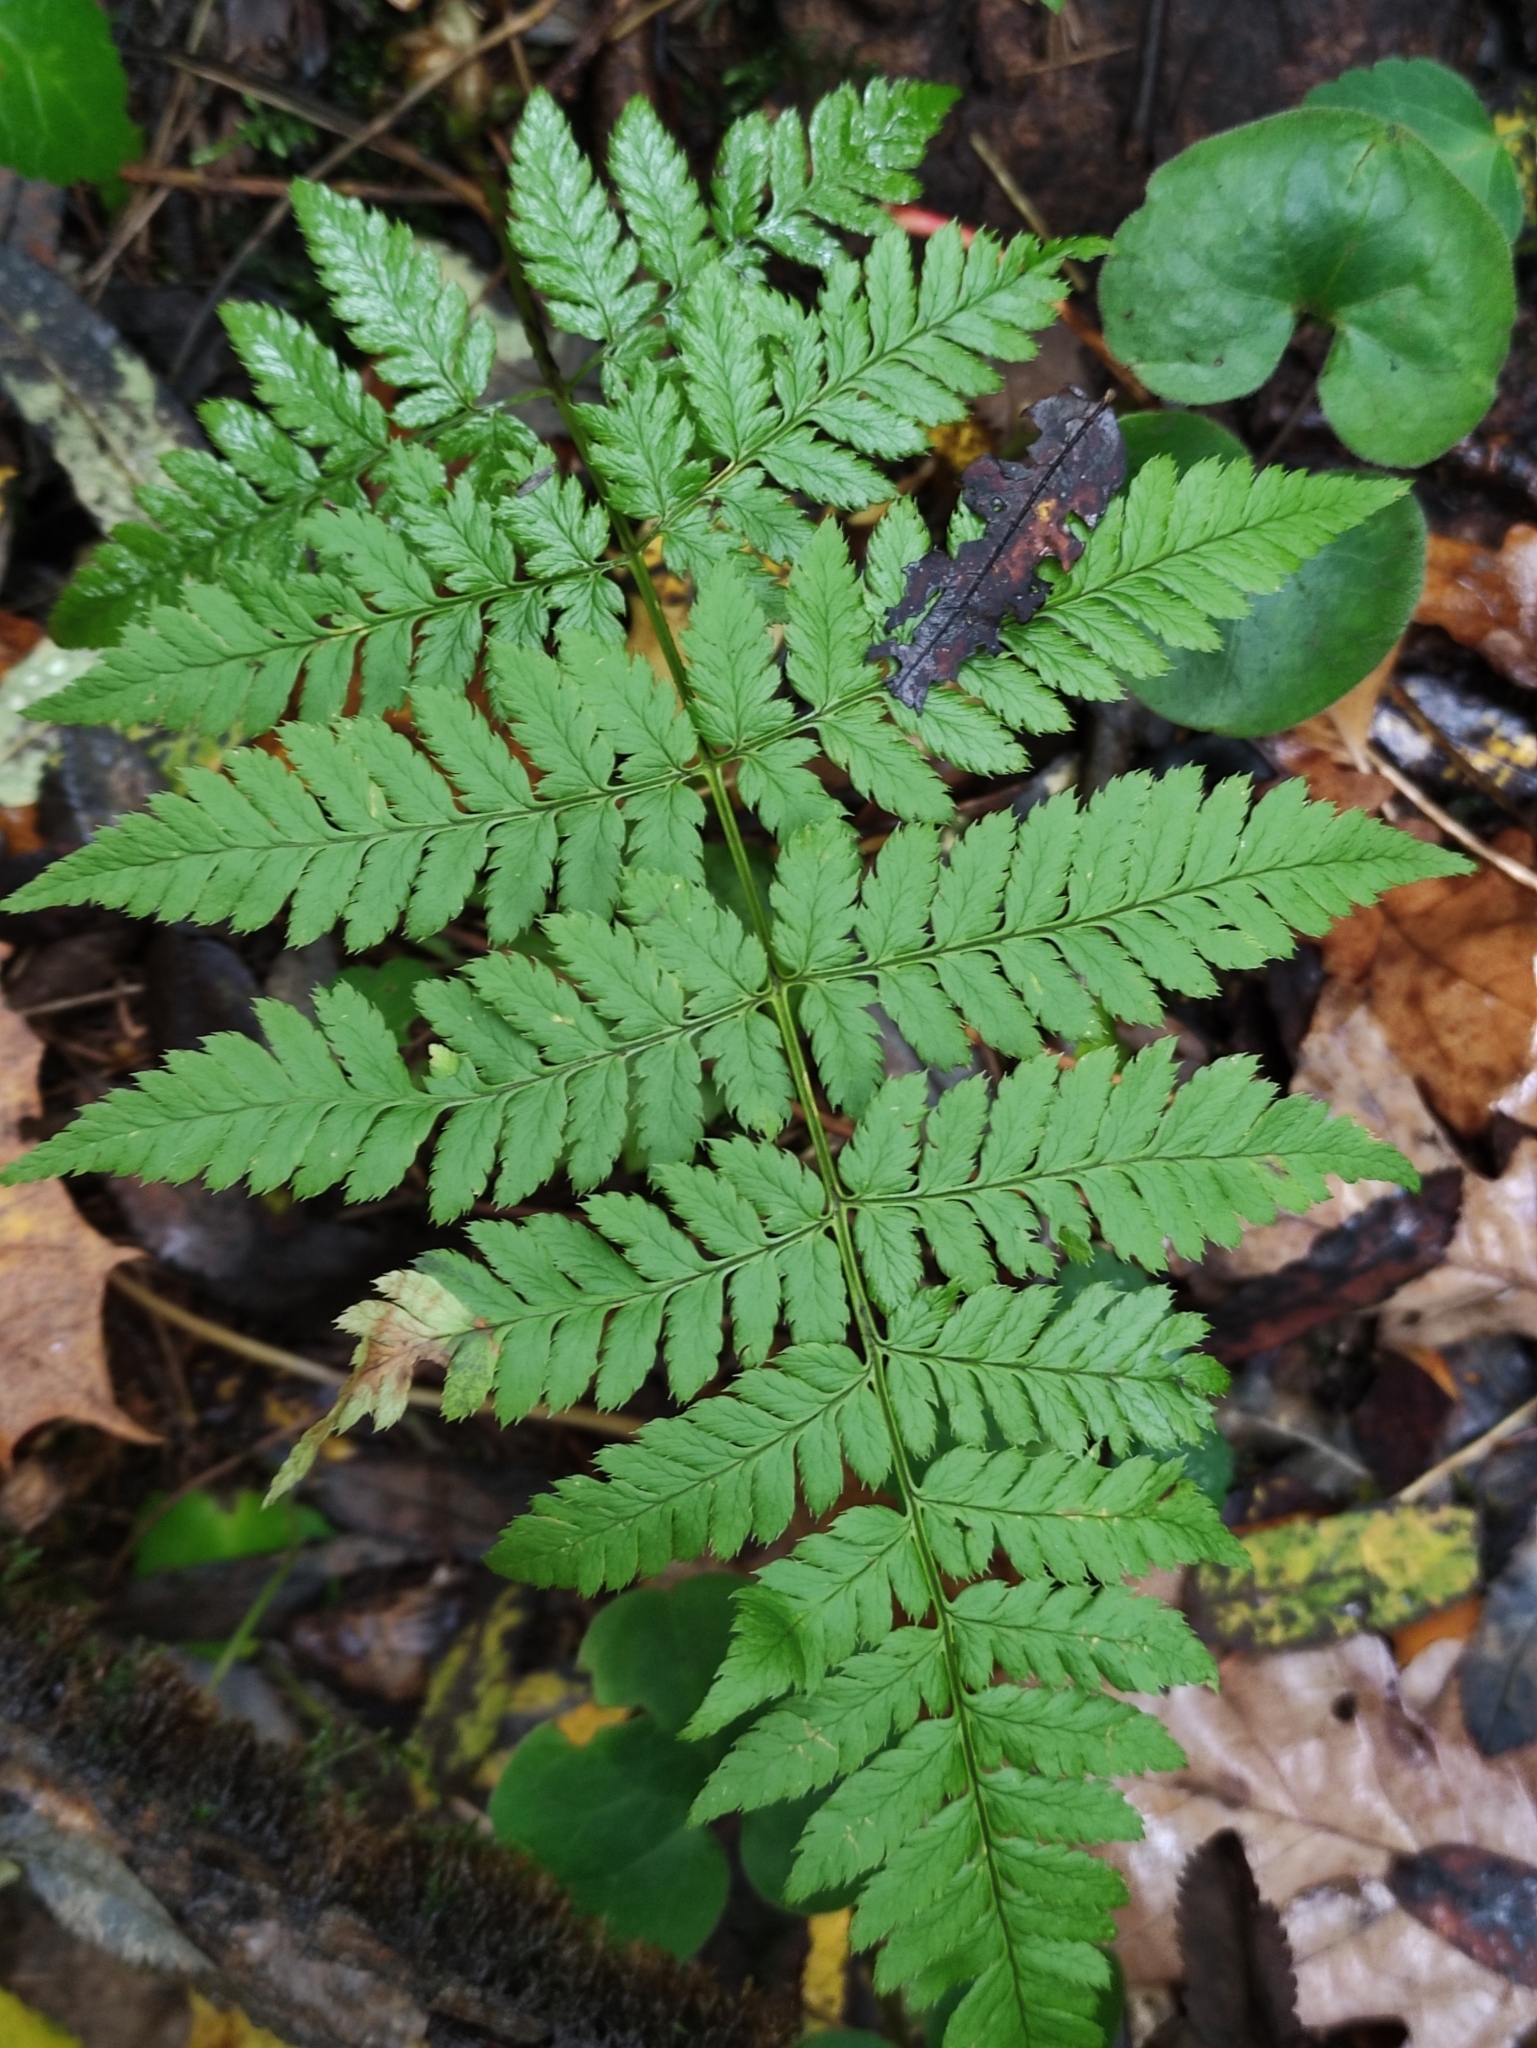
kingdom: Plantae
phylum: Tracheophyta
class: Polypodiopsida
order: Polypodiales
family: Dryopteridaceae
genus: Dryopteris
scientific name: Dryopteris carthusiana
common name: Narrow buckler-fern
